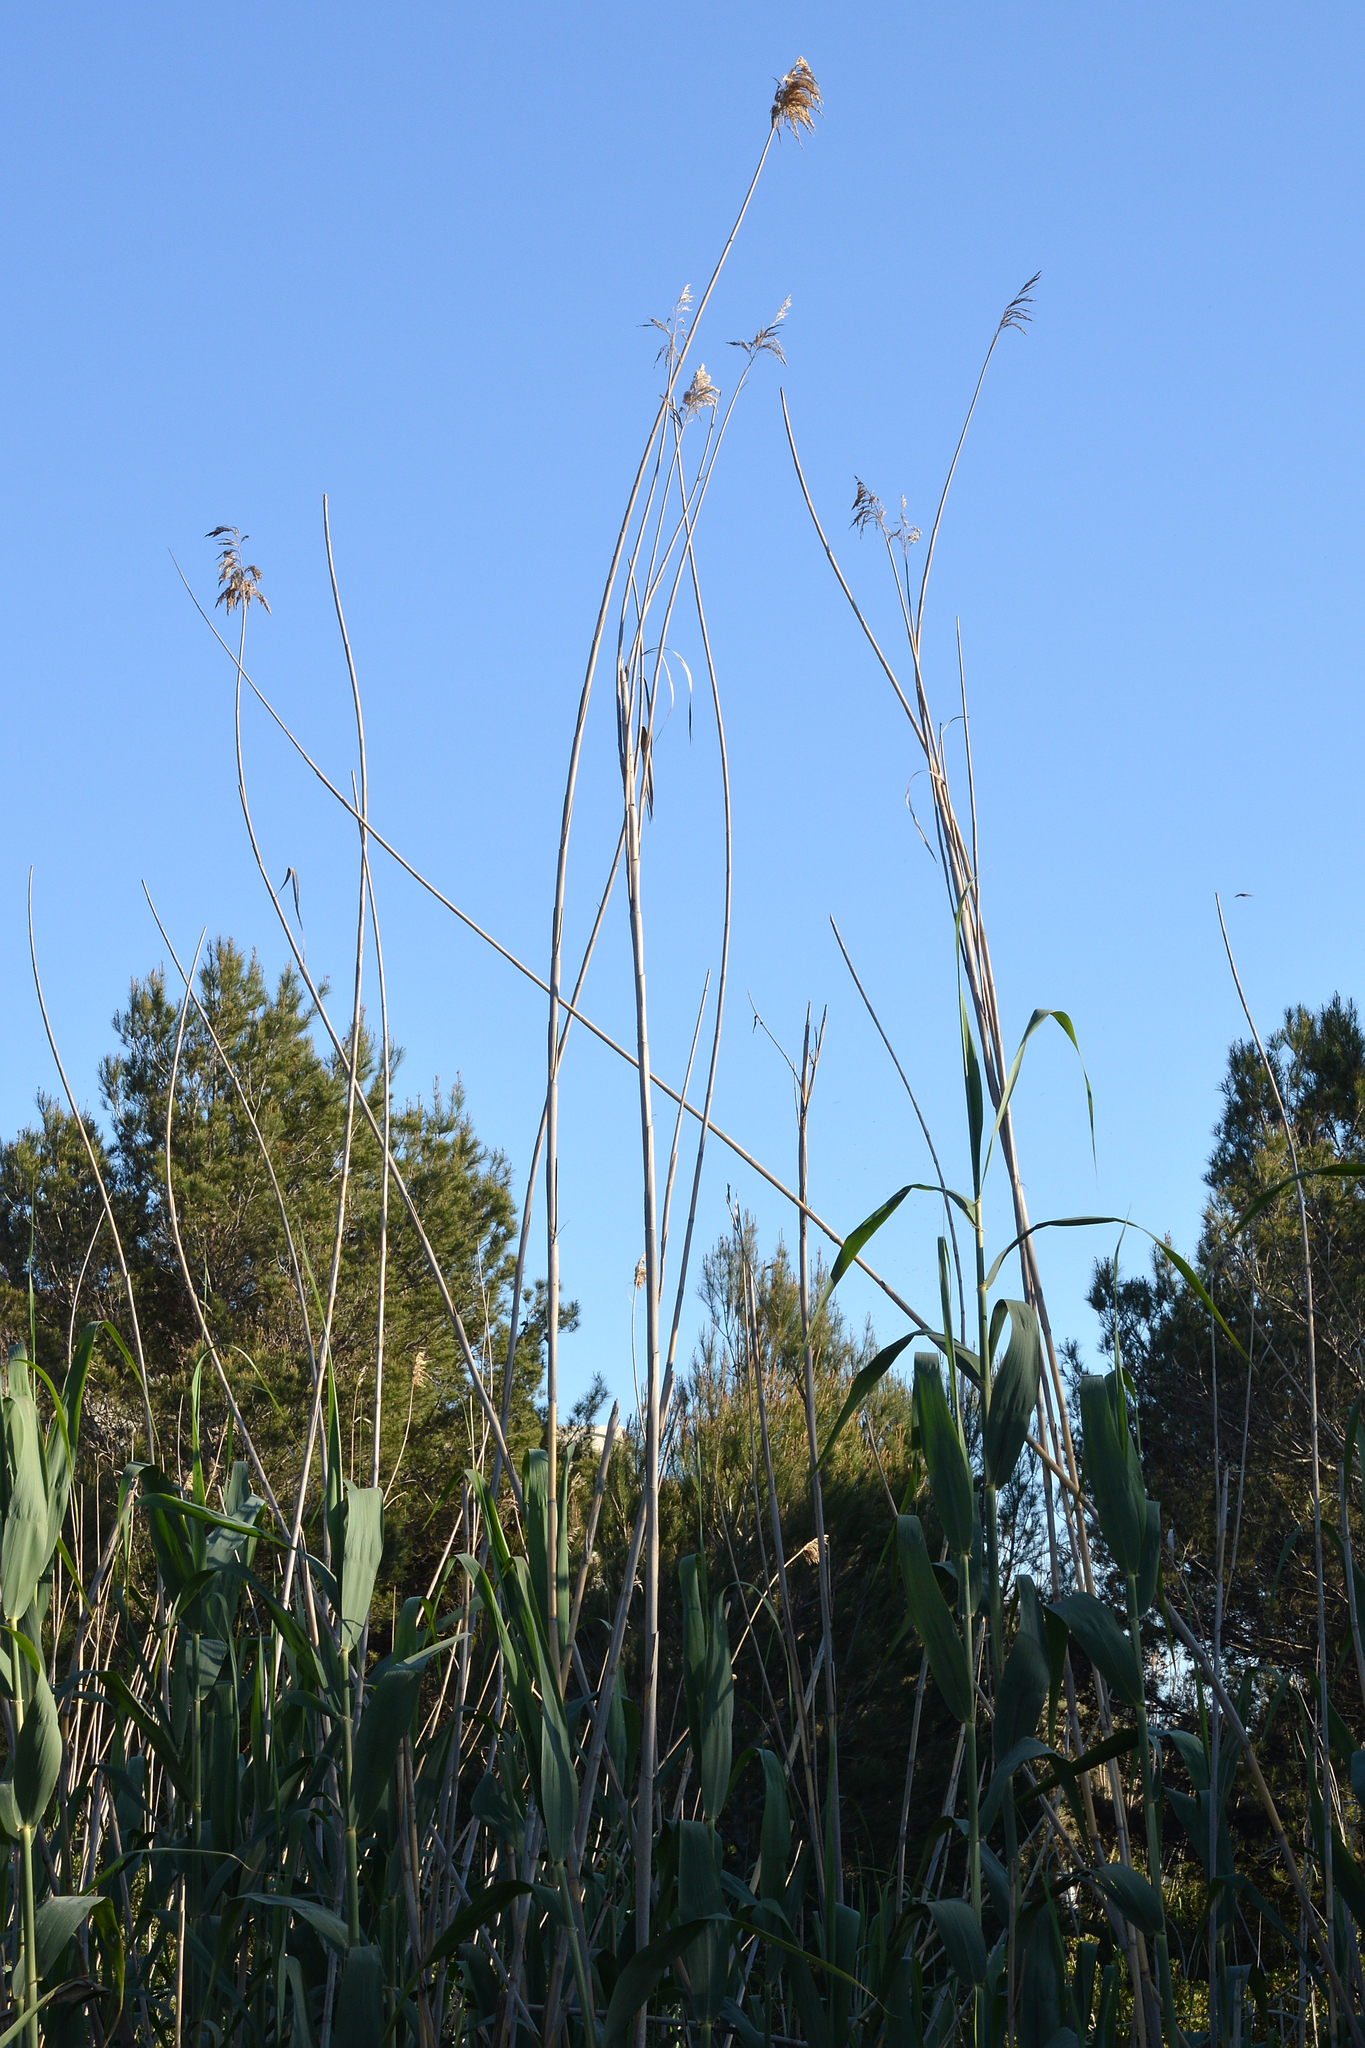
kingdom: Plantae
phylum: Tracheophyta
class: Liliopsida
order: Poales
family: Poaceae
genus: Phragmites
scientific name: Phragmites australis
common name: Common reed
